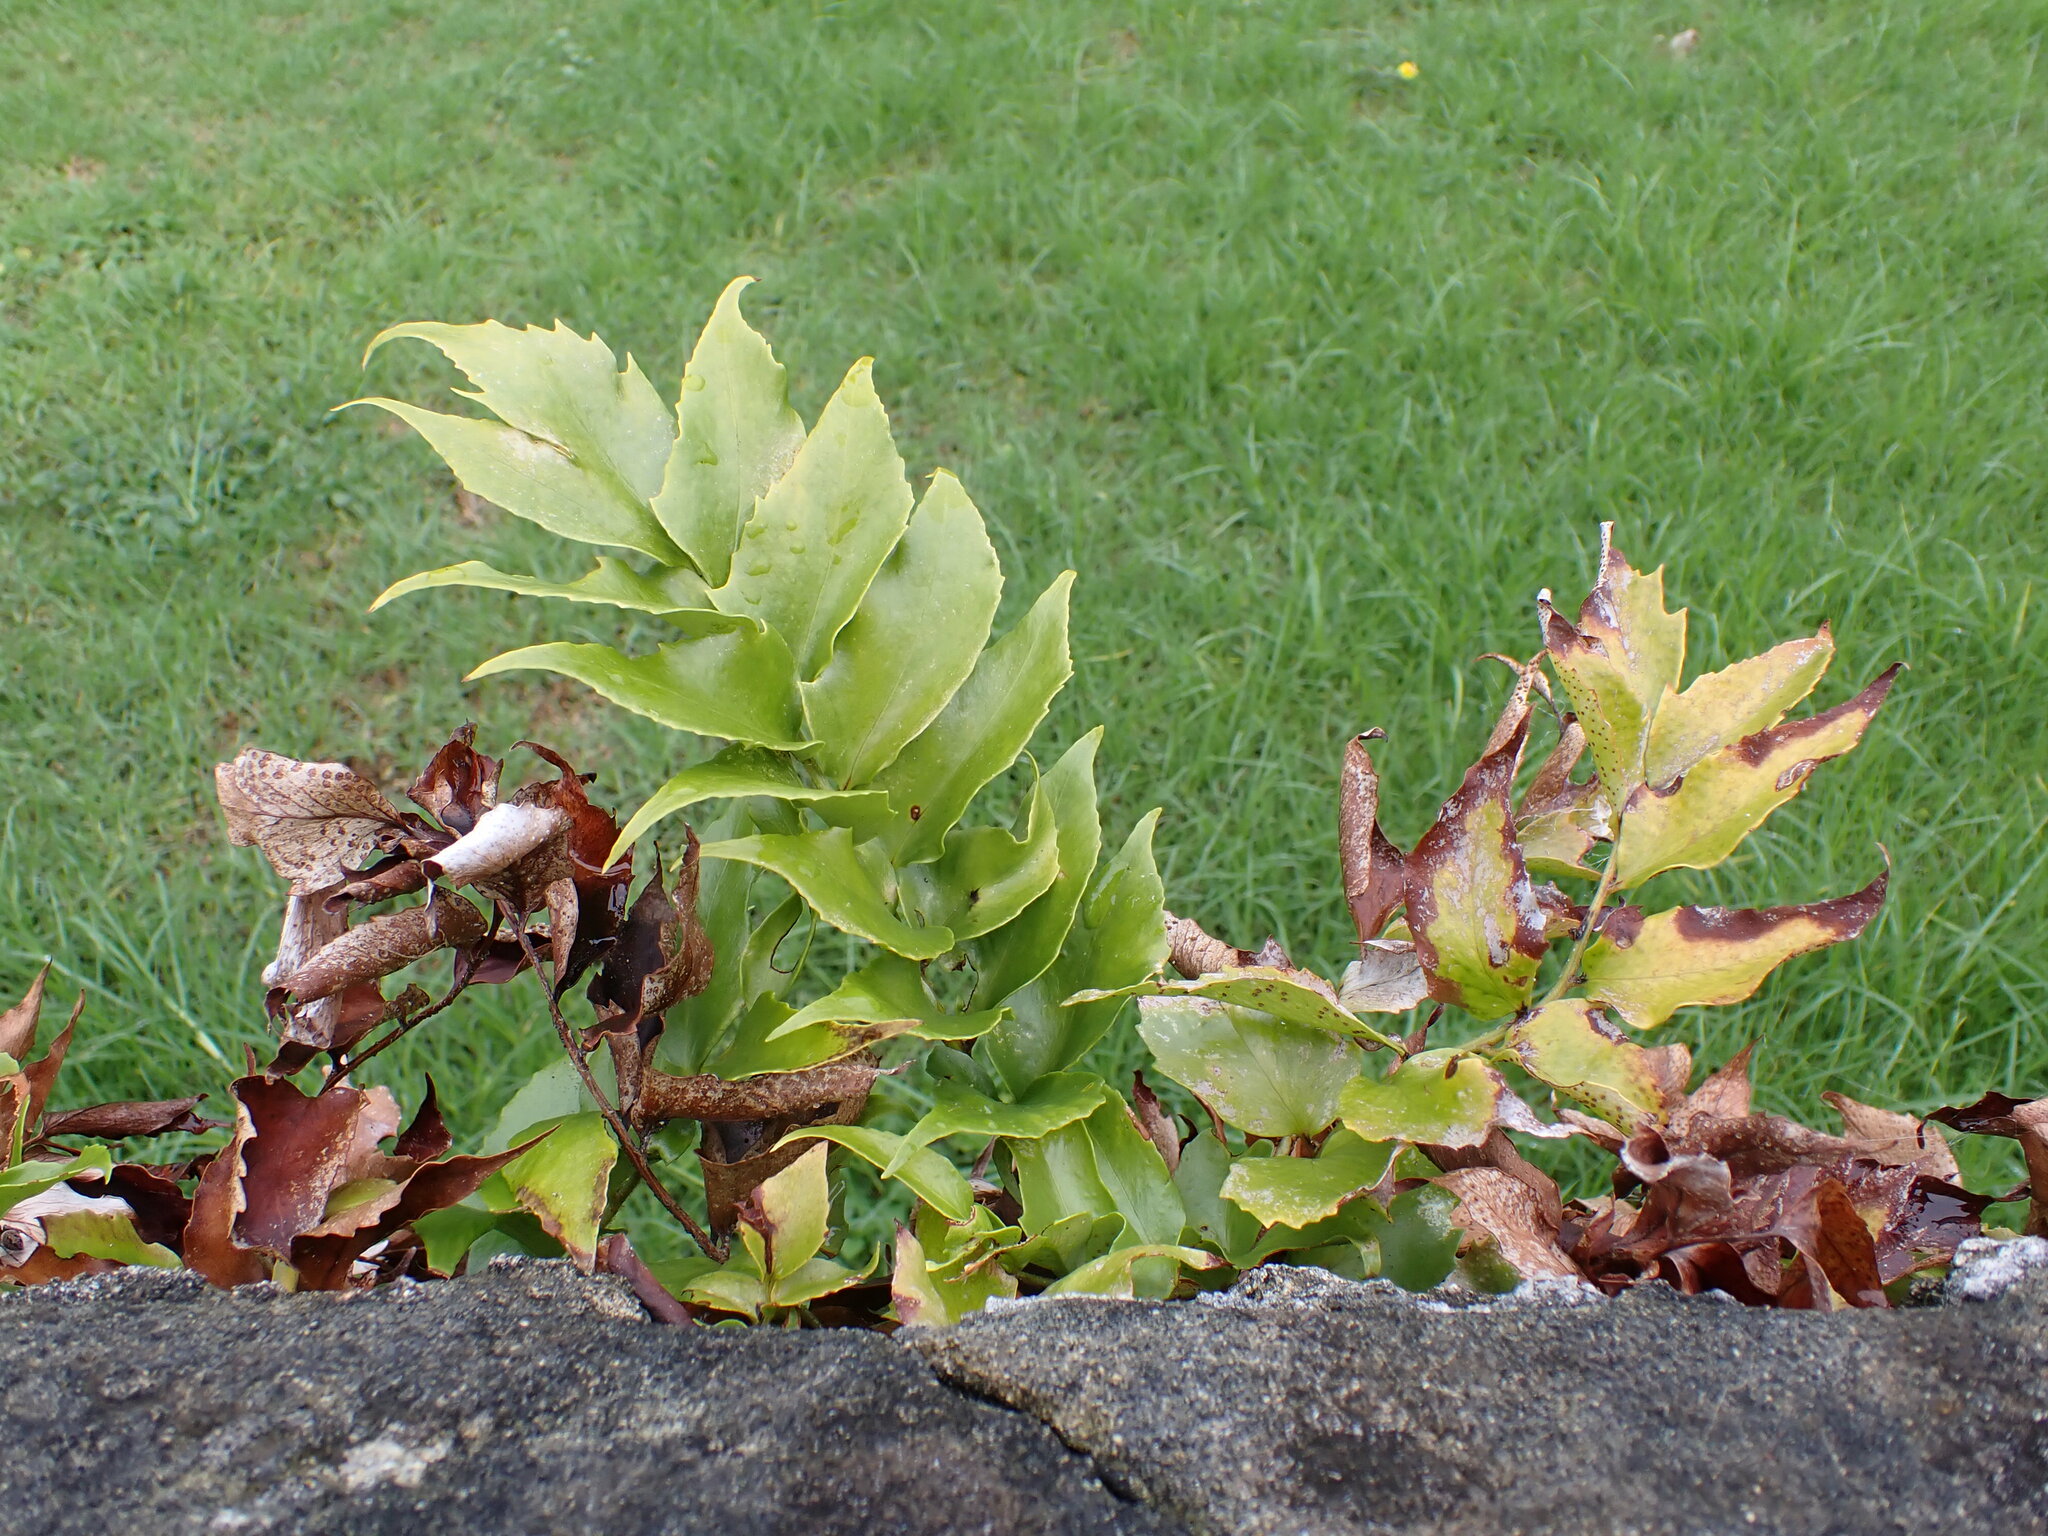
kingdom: Plantae
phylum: Tracheophyta
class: Polypodiopsida
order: Polypodiales
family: Dryopteridaceae
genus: Cyrtomium
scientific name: Cyrtomium falcatum
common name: House holly-fern
